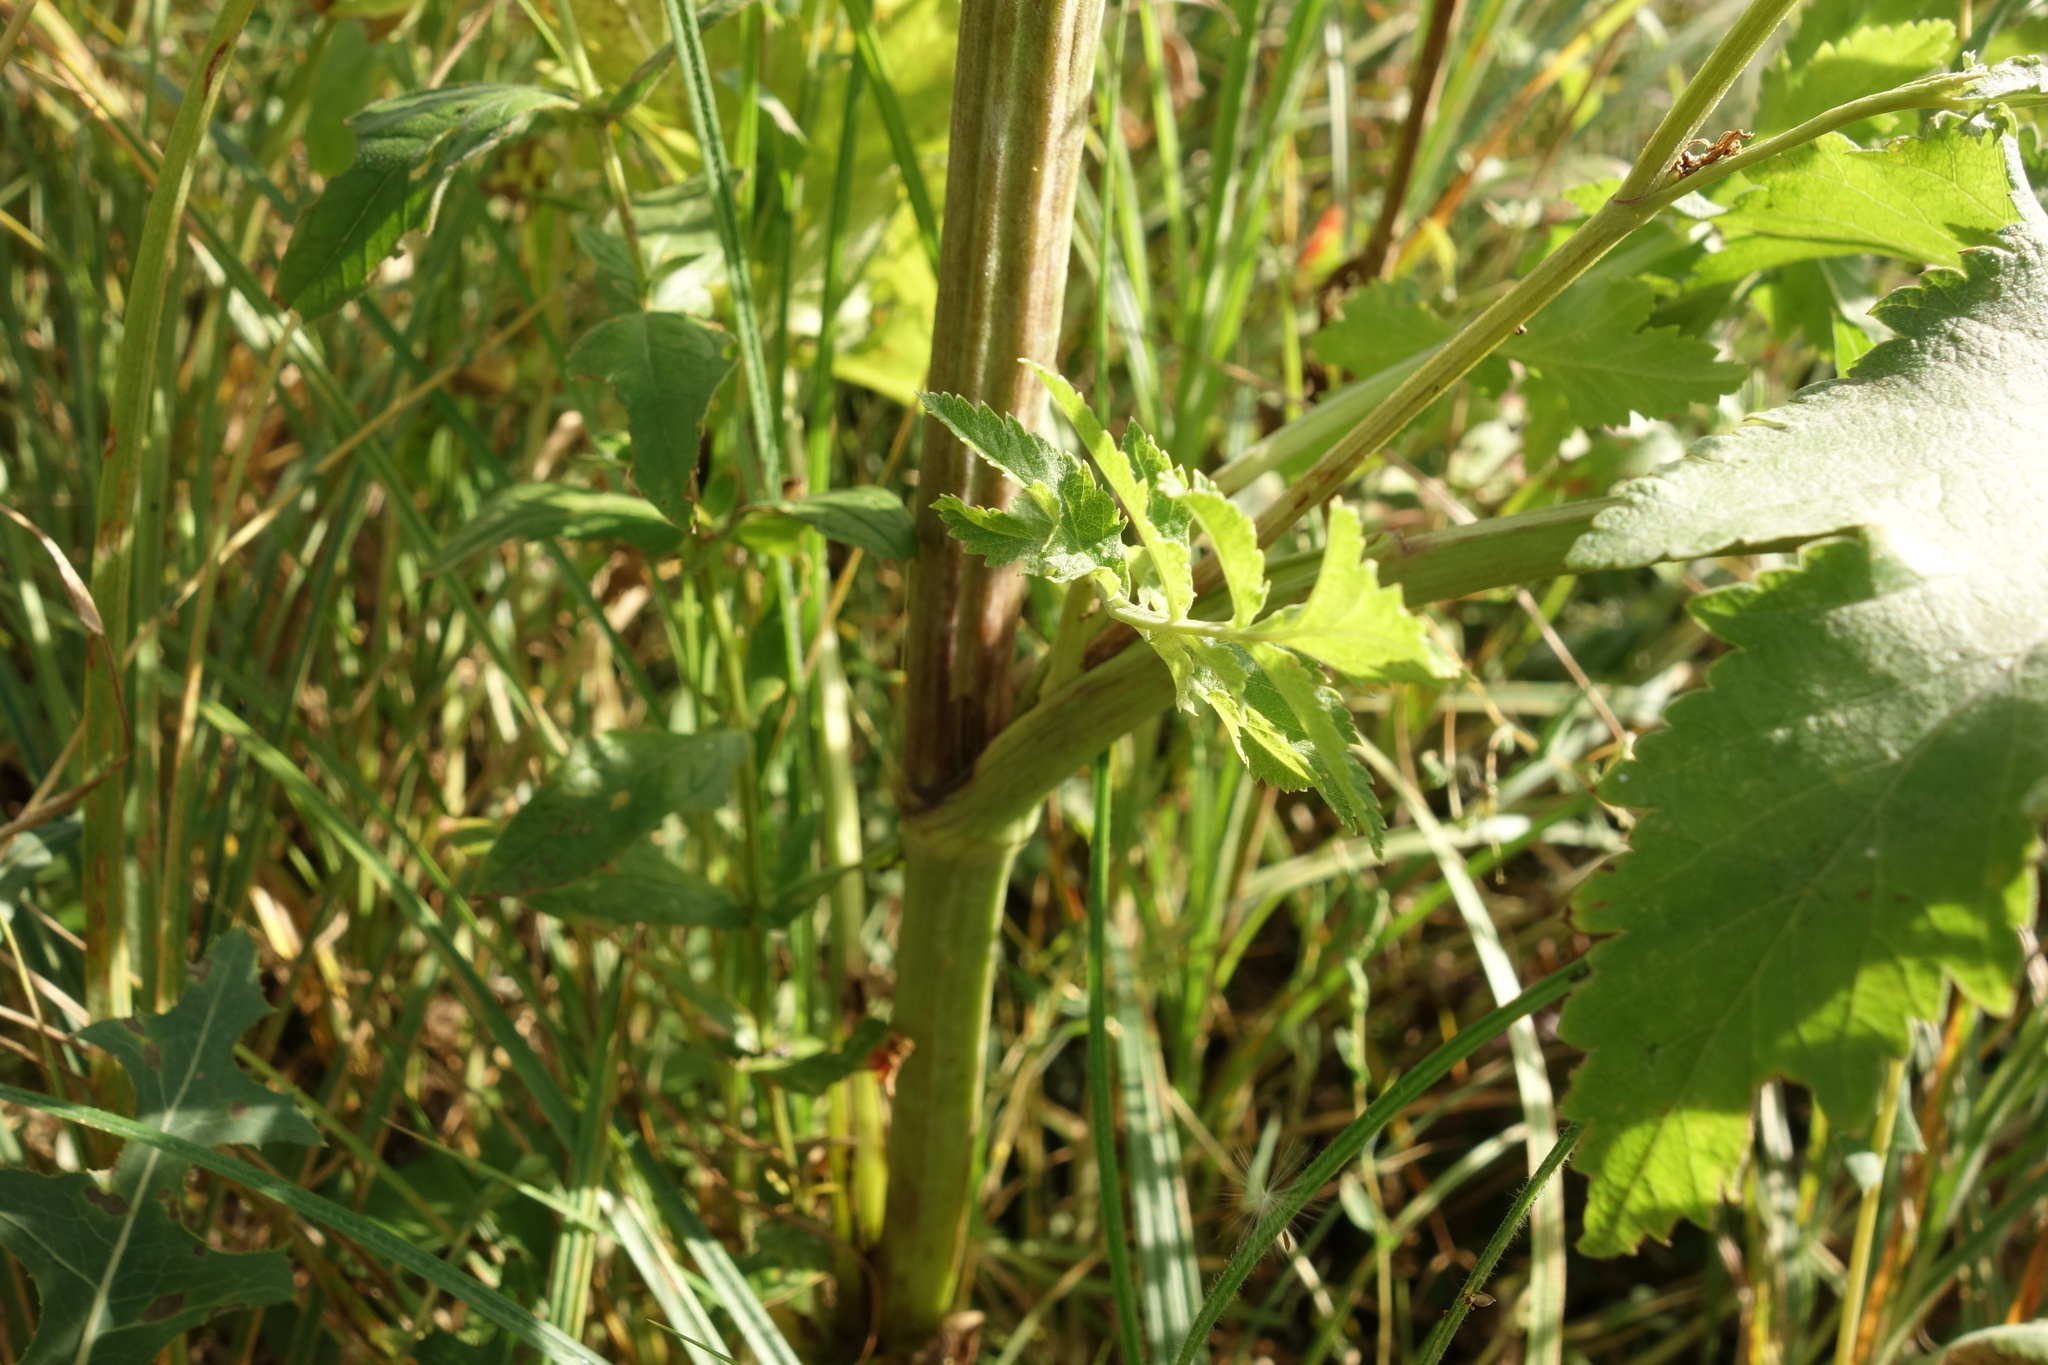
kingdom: Plantae
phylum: Tracheophyta
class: Magnoliopsida
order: Apiales
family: Apiaceae
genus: Pastinaca
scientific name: Pastinaca sativa
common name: Wild parsnip
